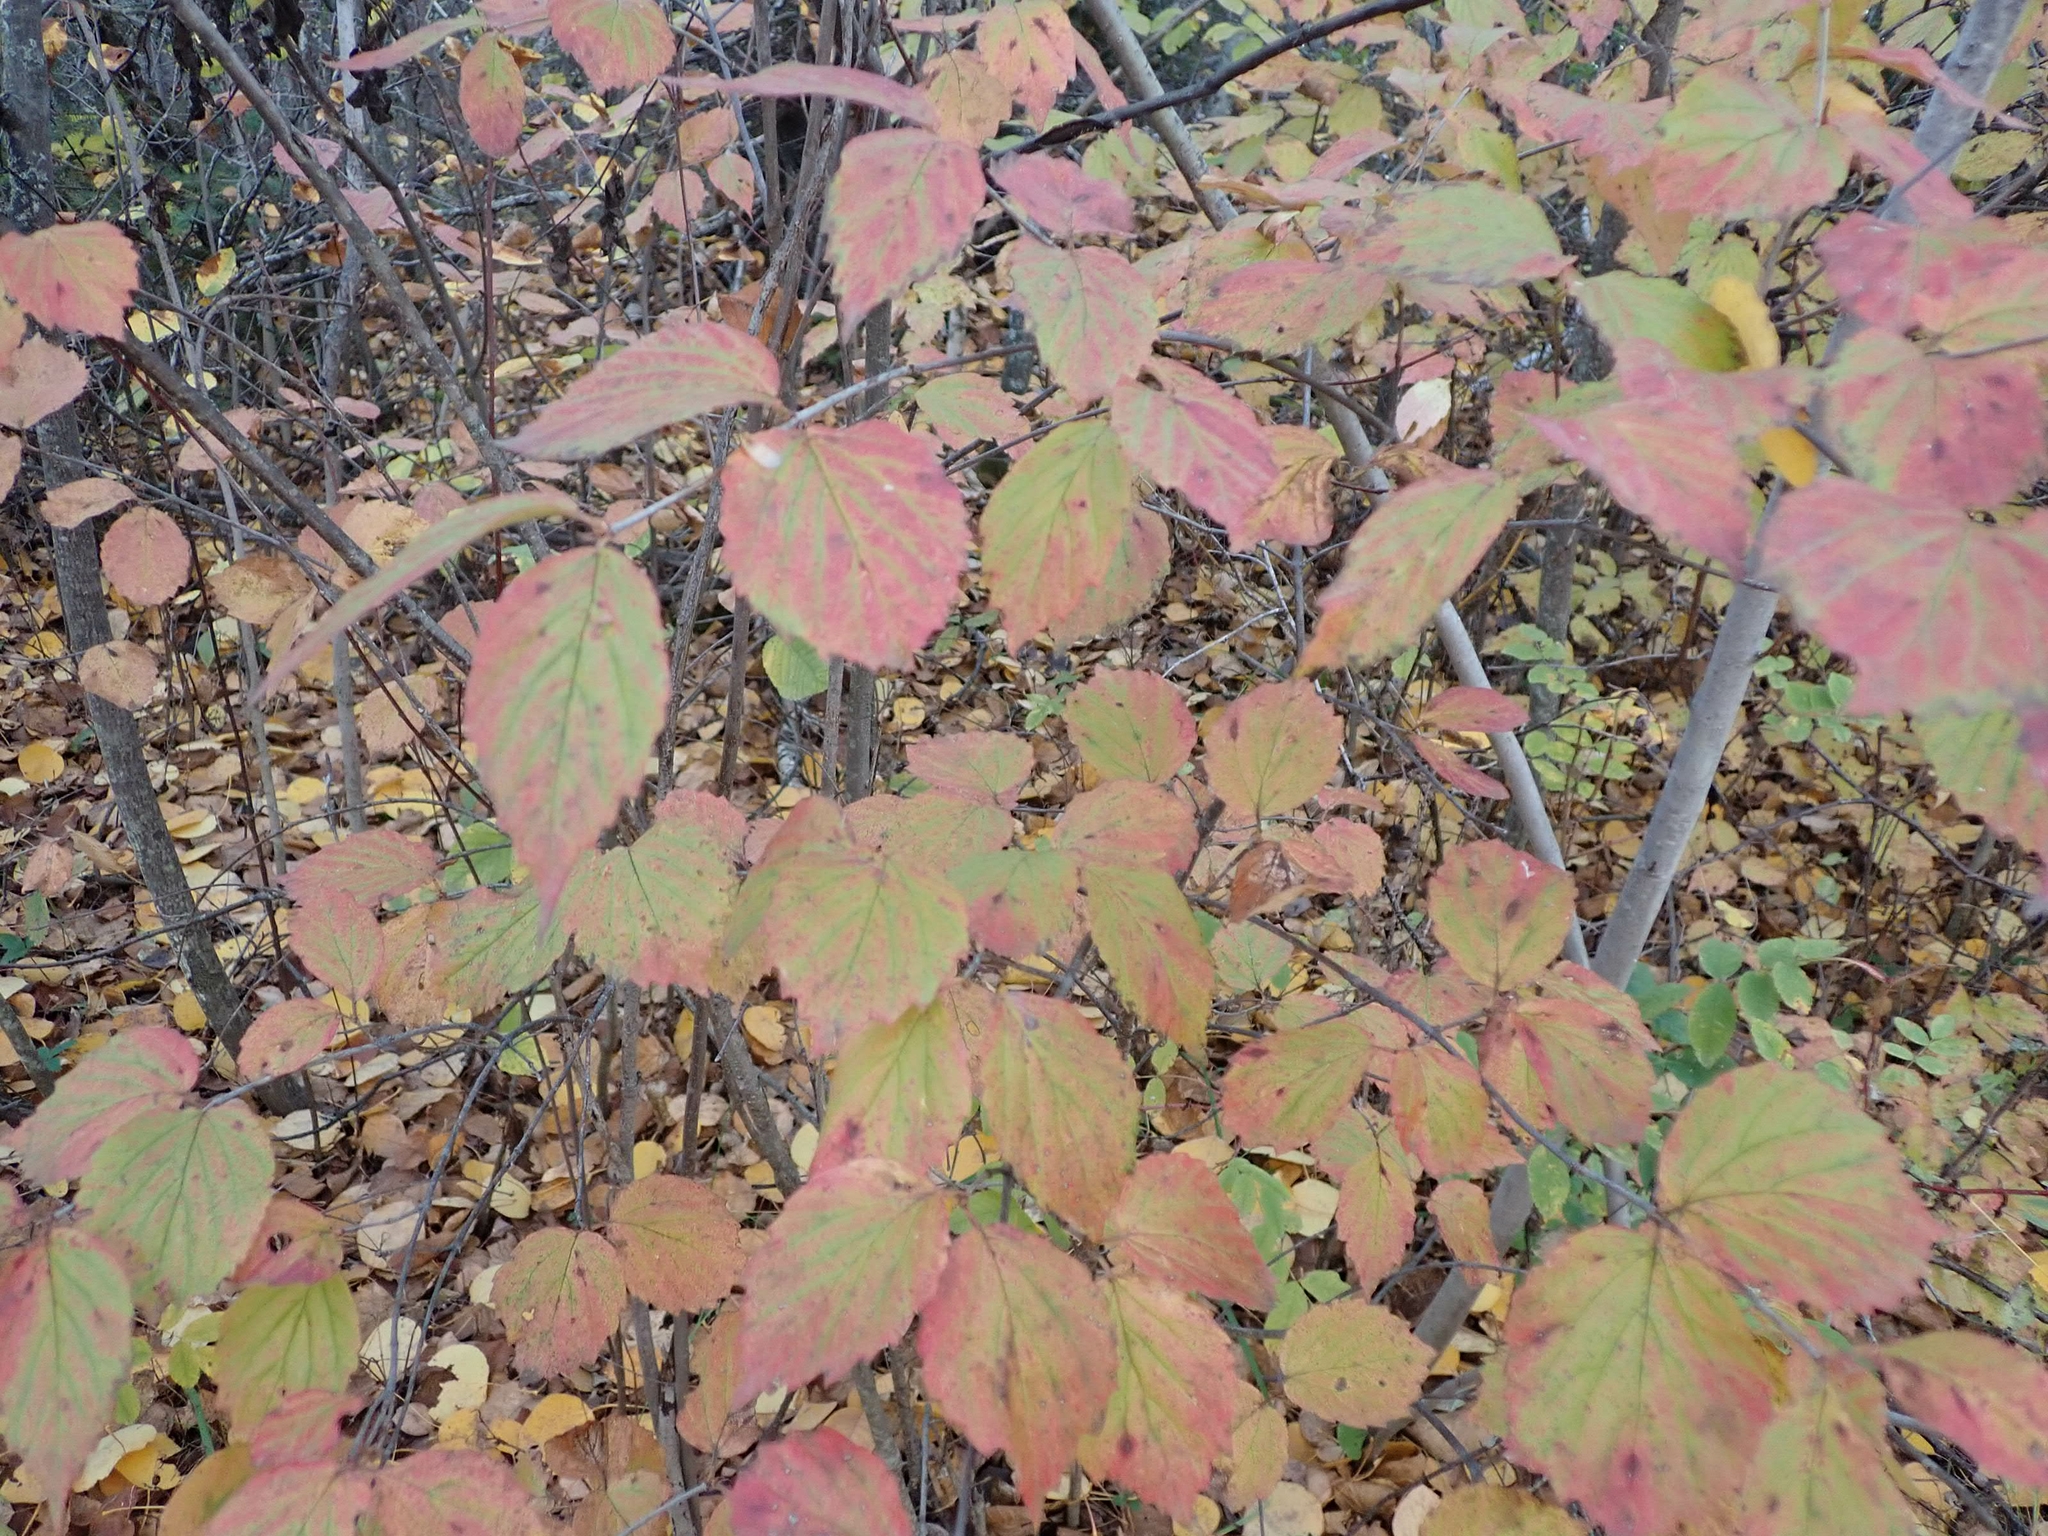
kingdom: Plantae
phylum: Tracheophyta
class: Magnoliopsida
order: Dipsacales
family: Viburnaceae
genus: Viburnum
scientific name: Viburnum rafinesqueanum
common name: Downy arrow-wood
